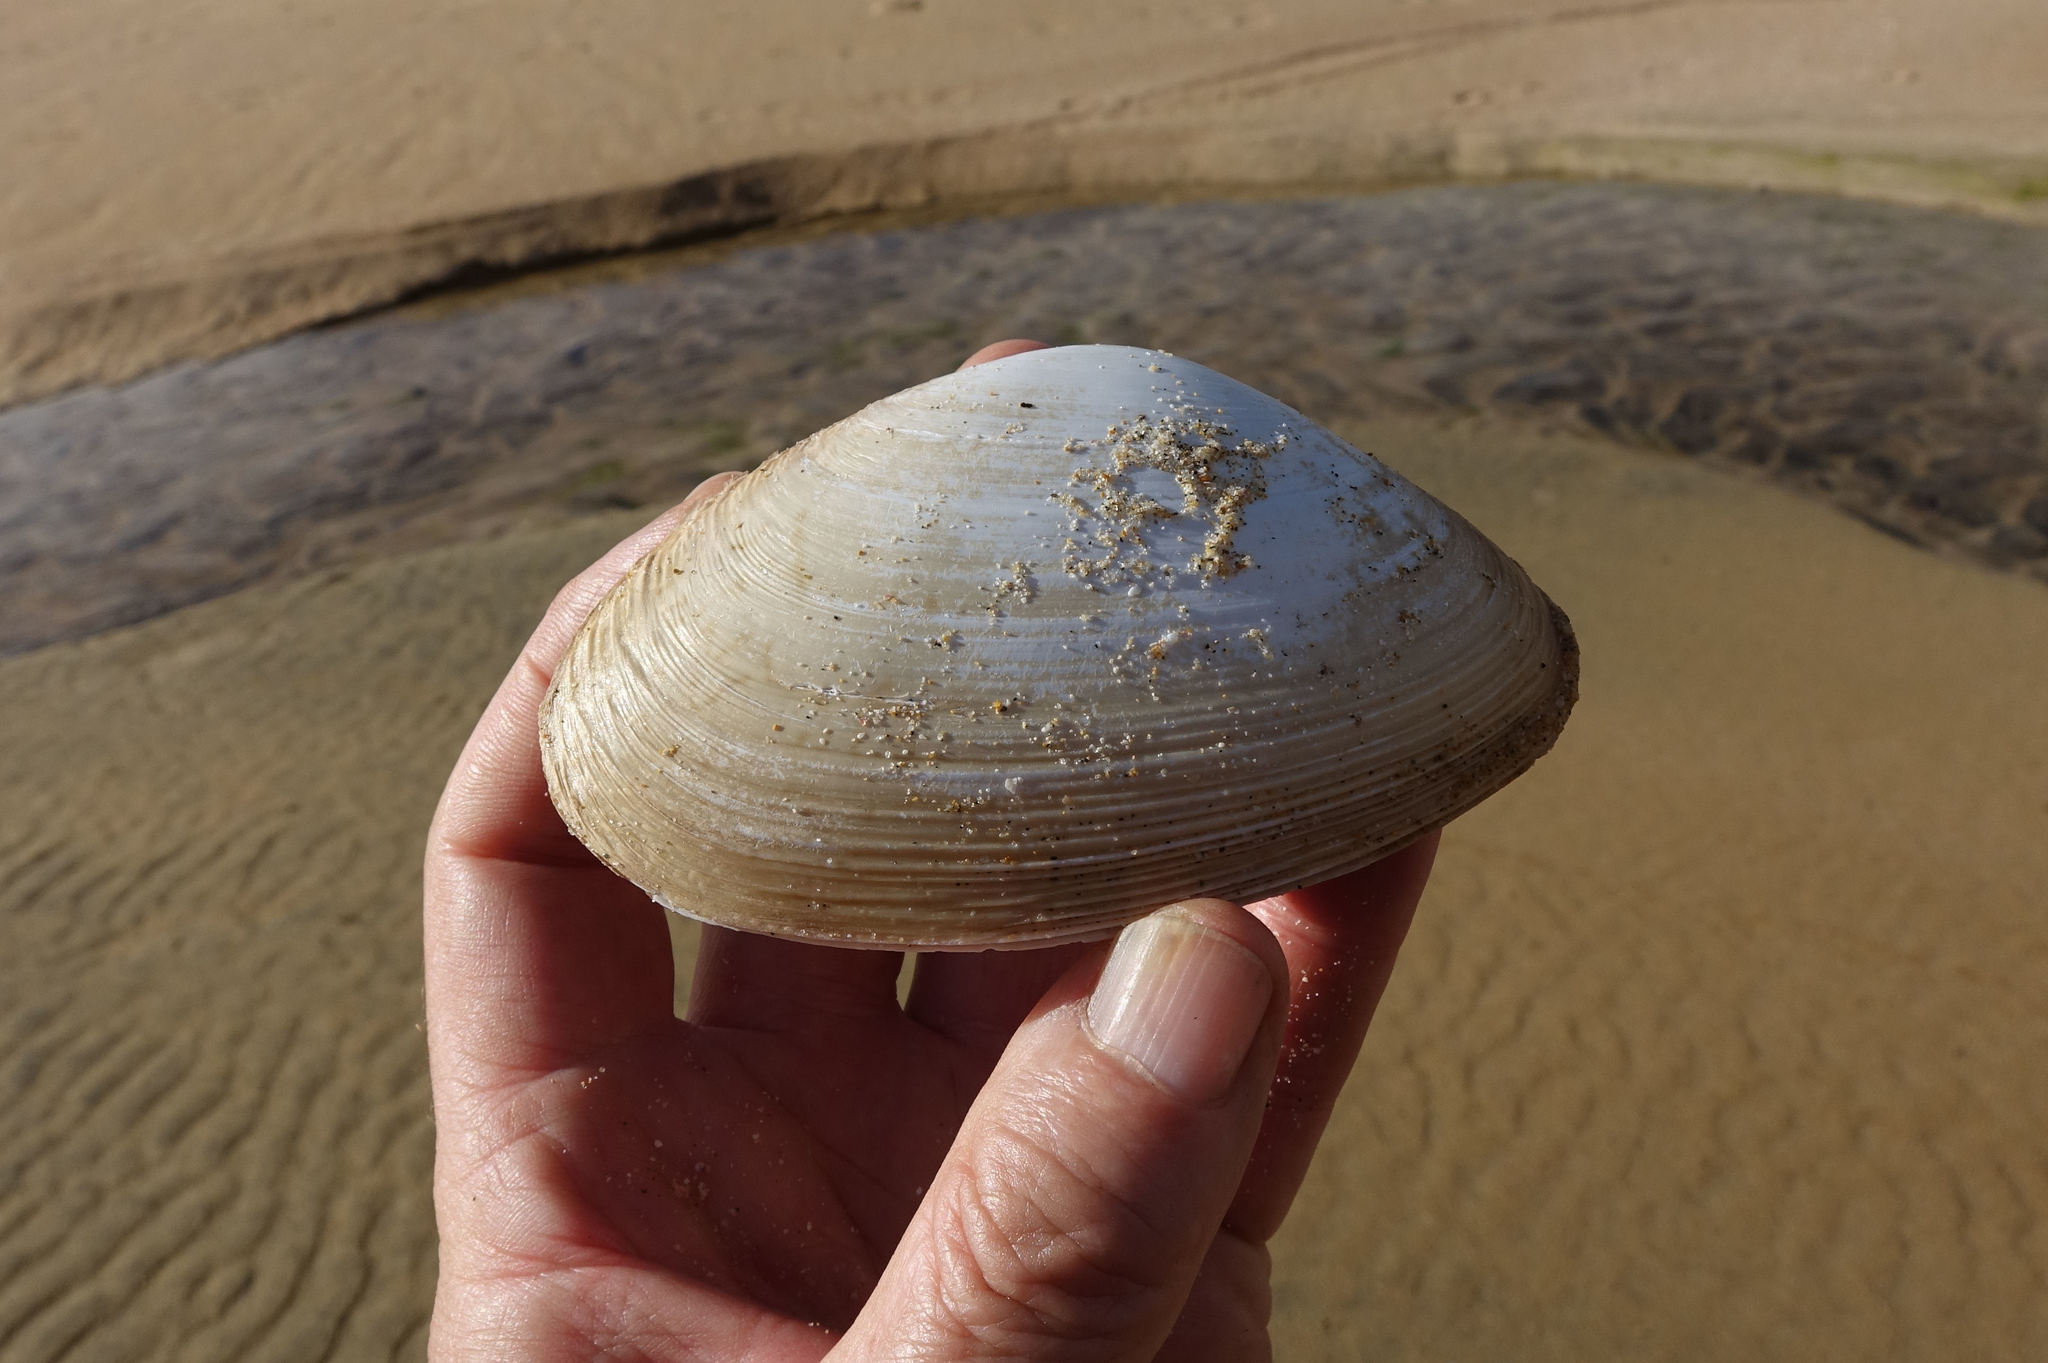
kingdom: Animalia
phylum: Mollusca
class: Bivalvia
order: Venerida
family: Mactridae
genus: Oxyperas
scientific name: Oxyperas elongatum
